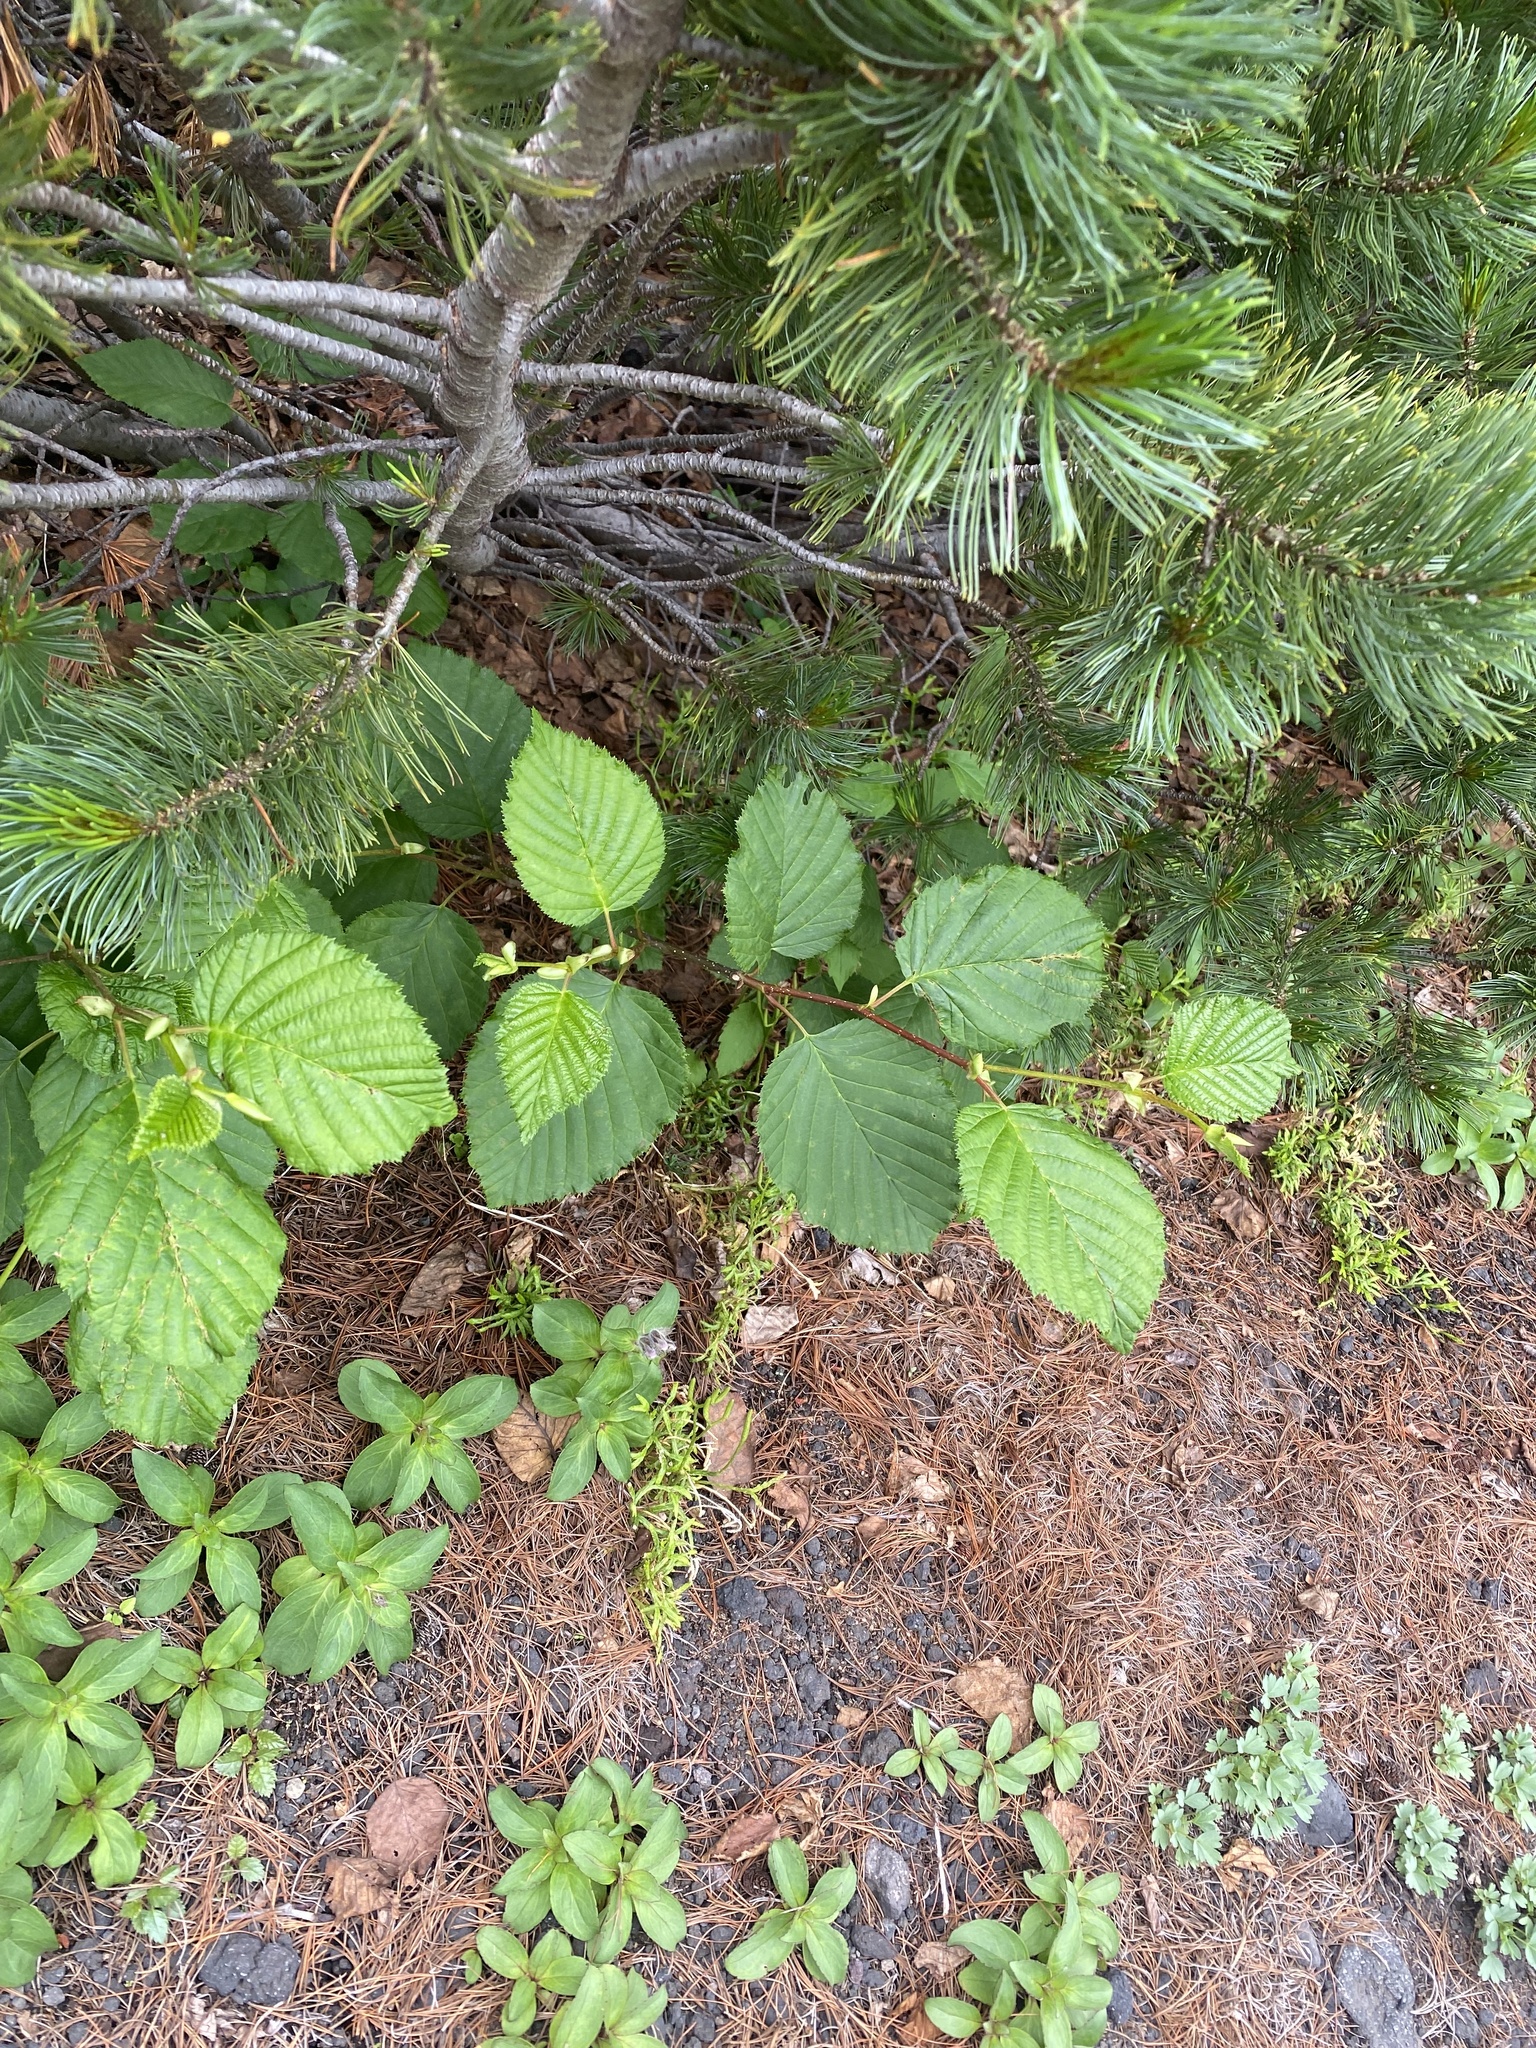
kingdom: Plantae
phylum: Tracheophyta
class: Magnoliopsida
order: Fagales
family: Betulaceae
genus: Alnus
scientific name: Alnus alnobetula
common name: Green alder
